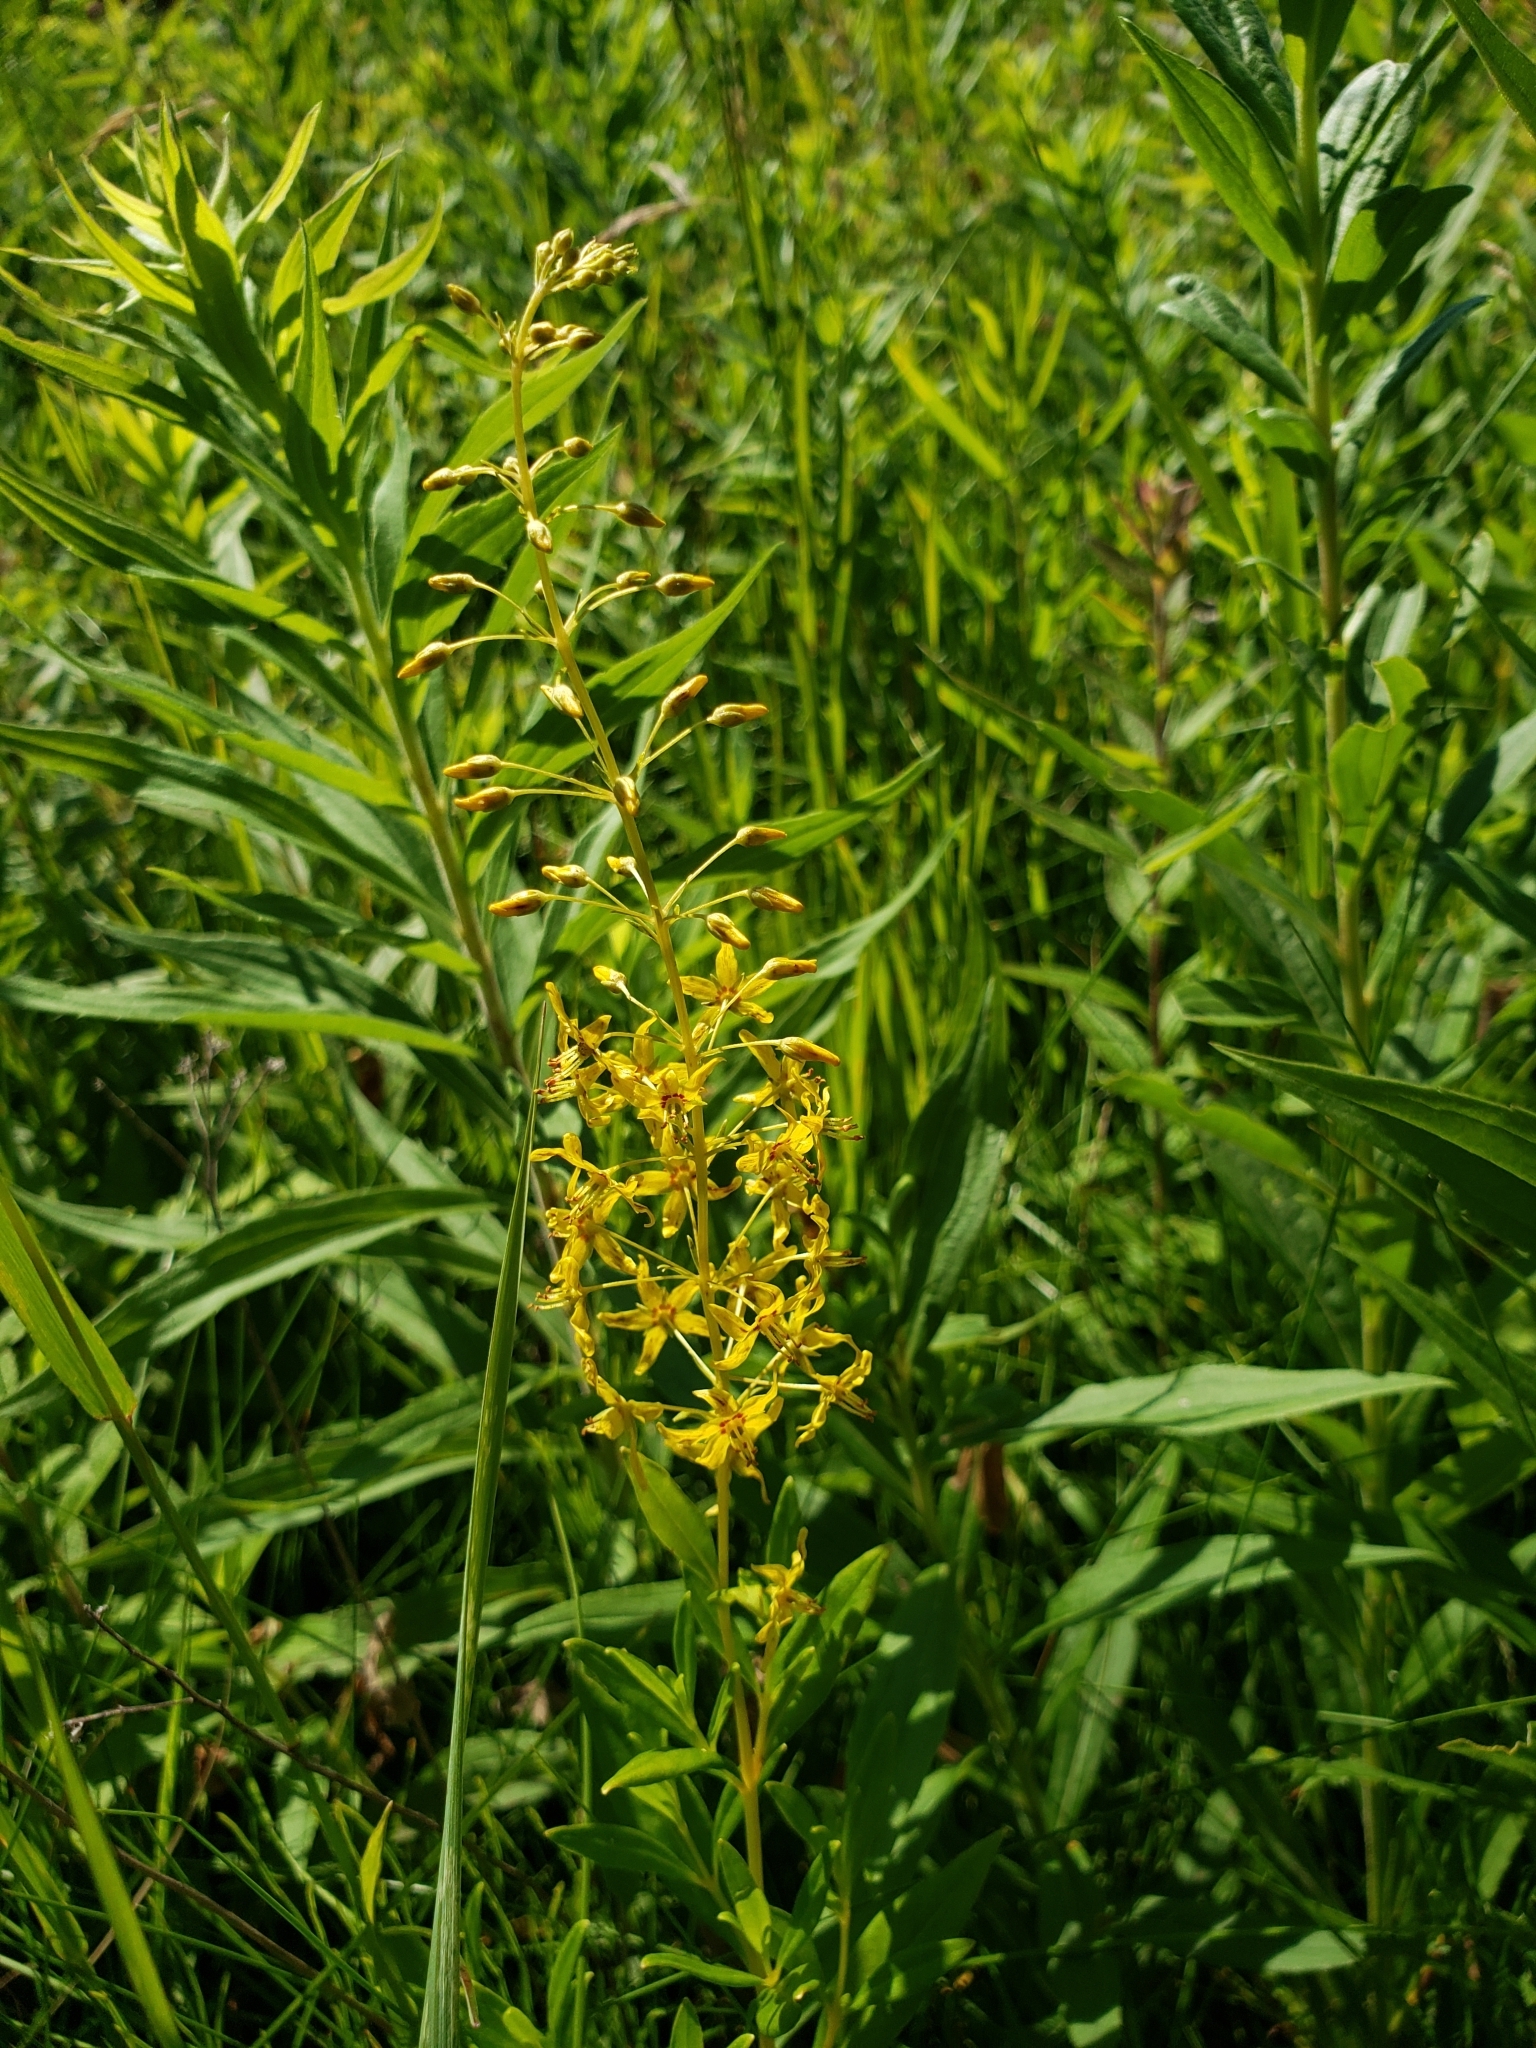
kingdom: Plantae
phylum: Tracheophyta
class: Magnoliopsida
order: Ericales
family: Primulaceae
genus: Lysimachia
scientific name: Lysimachia terrestris
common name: Lake loosestrife
